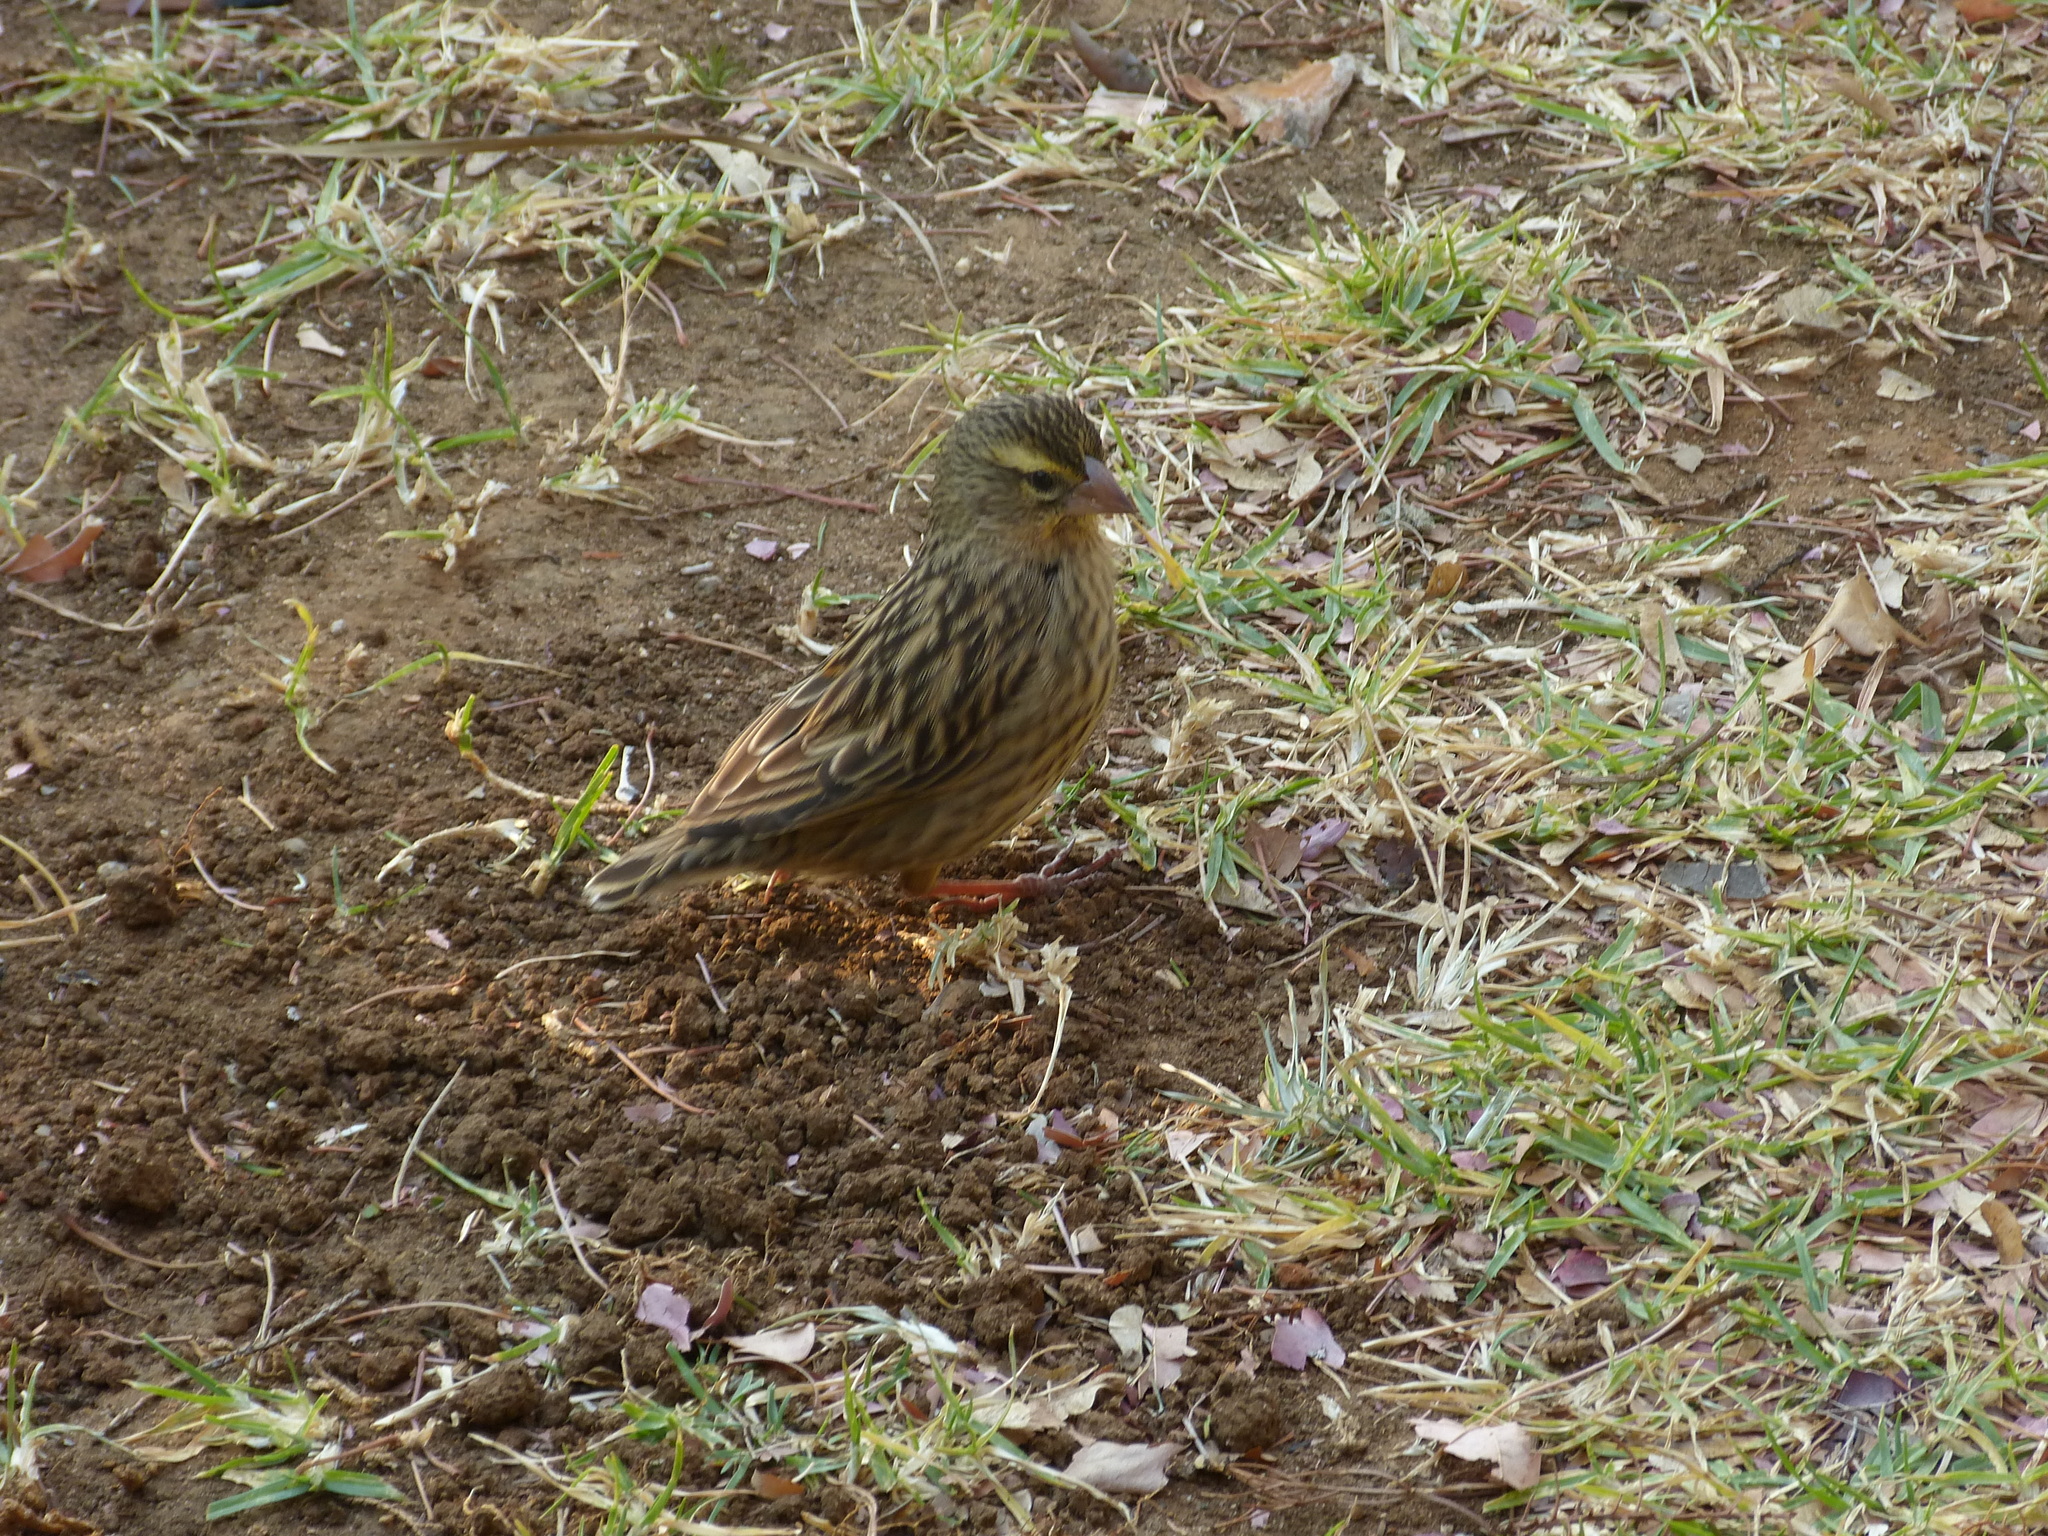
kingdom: Animalia
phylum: Chordata
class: Aves
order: Passeriformes
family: Ploceidae
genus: Euplectes
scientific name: Euplectes capensis
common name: Yellow bishop
